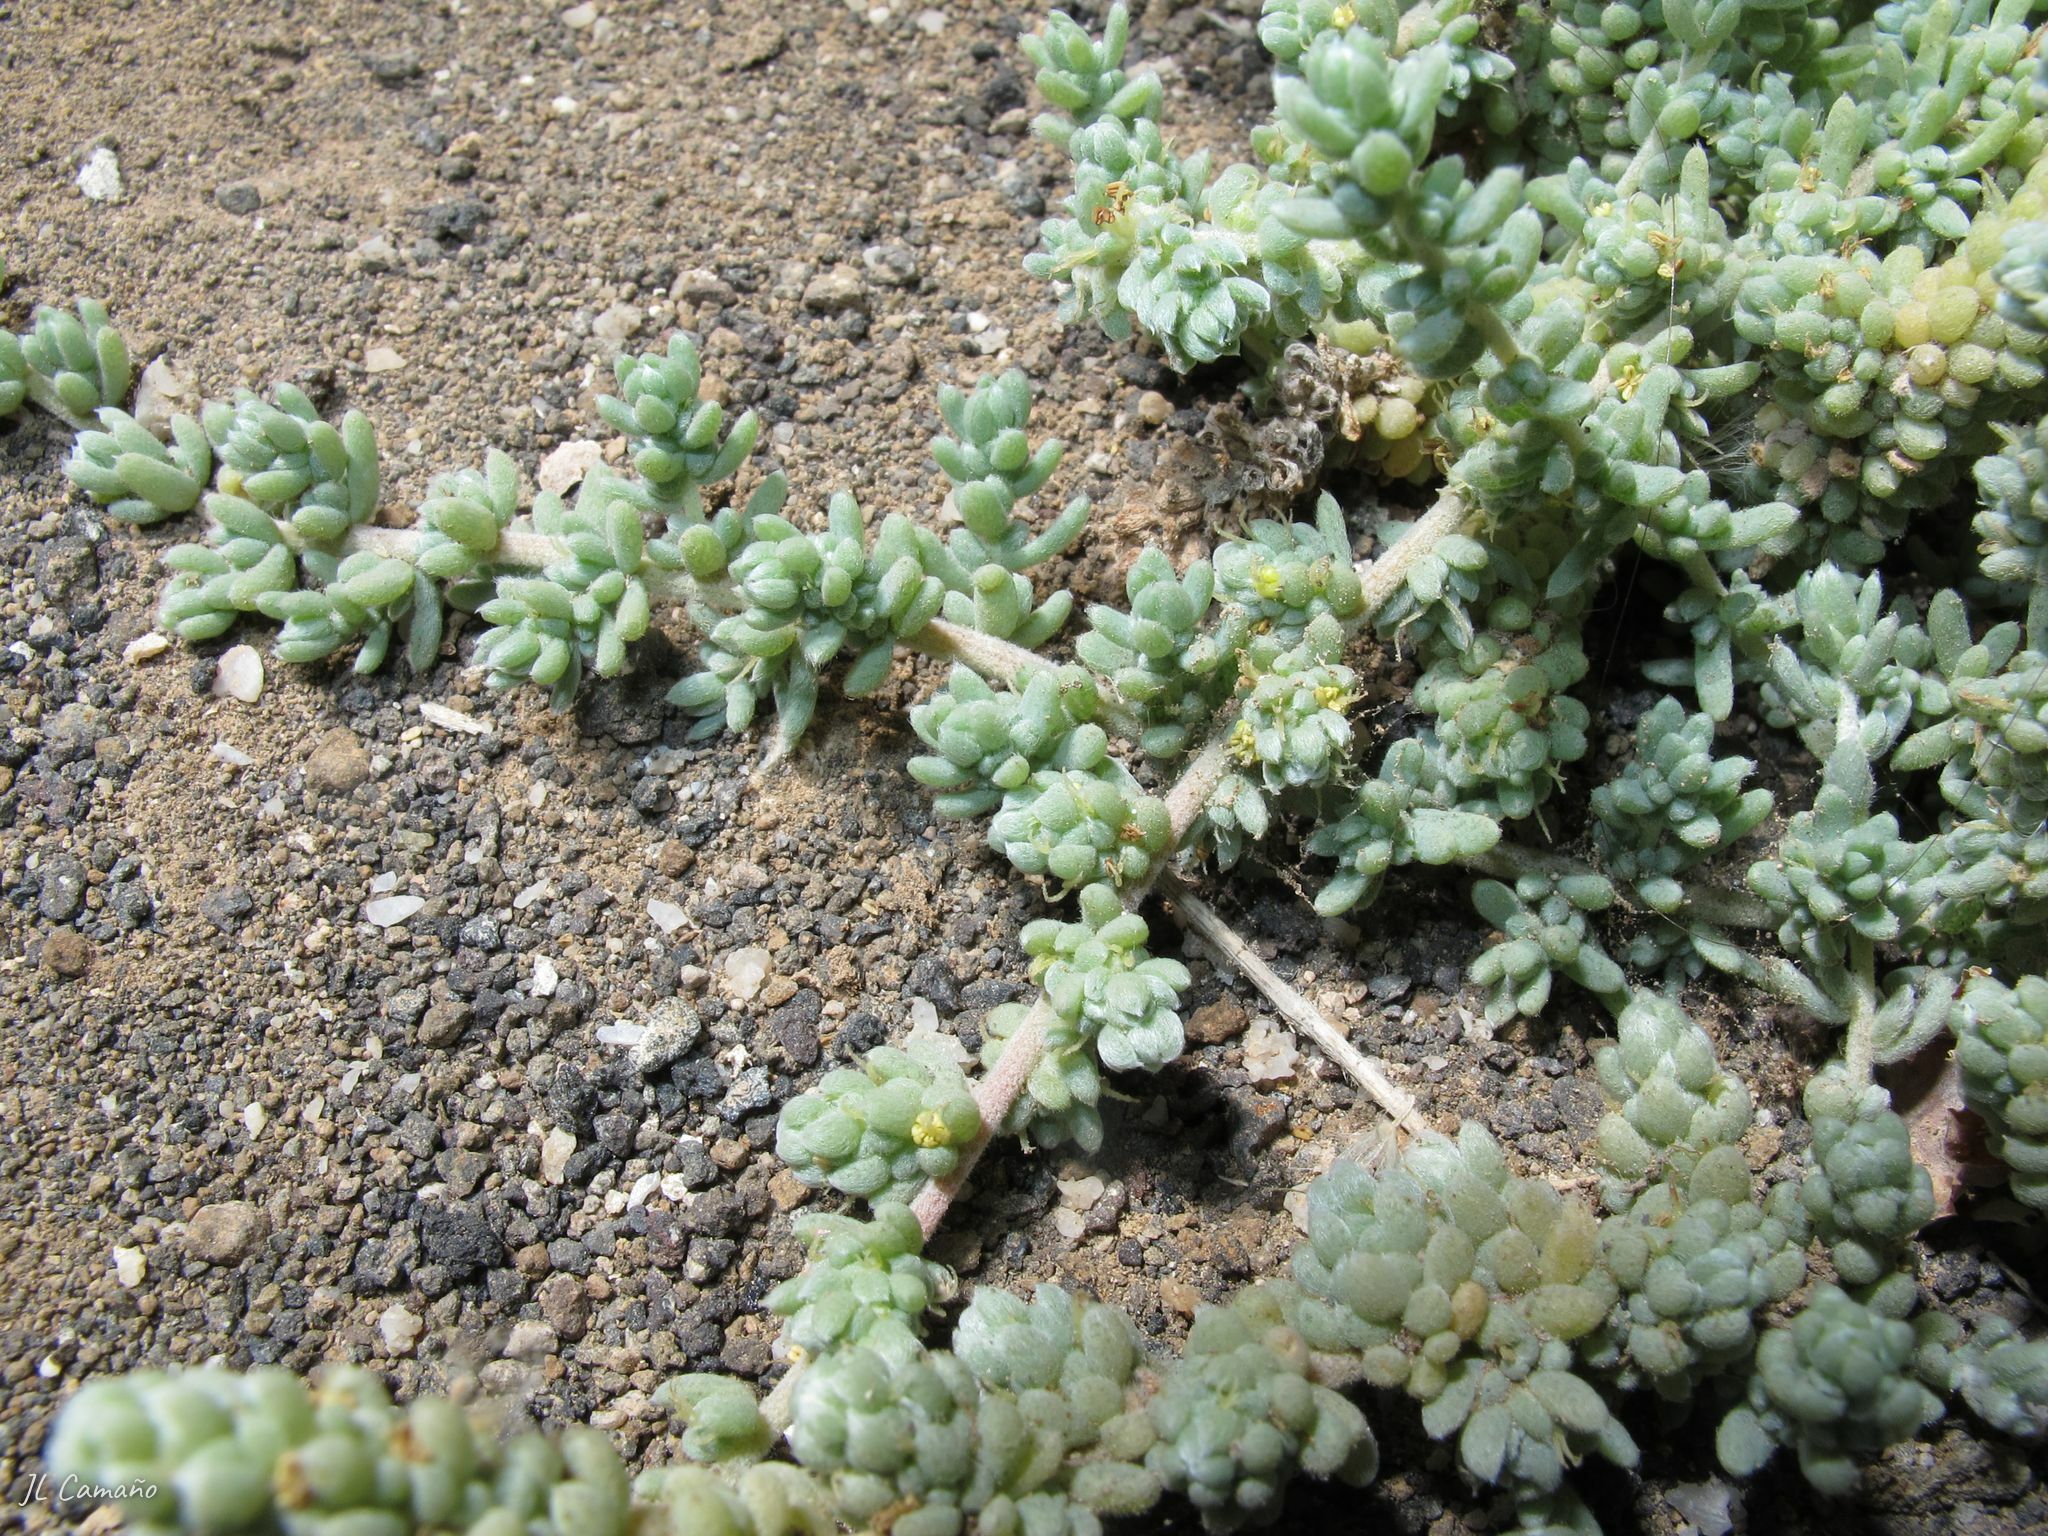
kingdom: Plantae
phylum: Tracheophyta
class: Magnoliopsida
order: Caryophyllales
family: Amaranthaceae
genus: Bassia
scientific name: Bassia tomentosa
